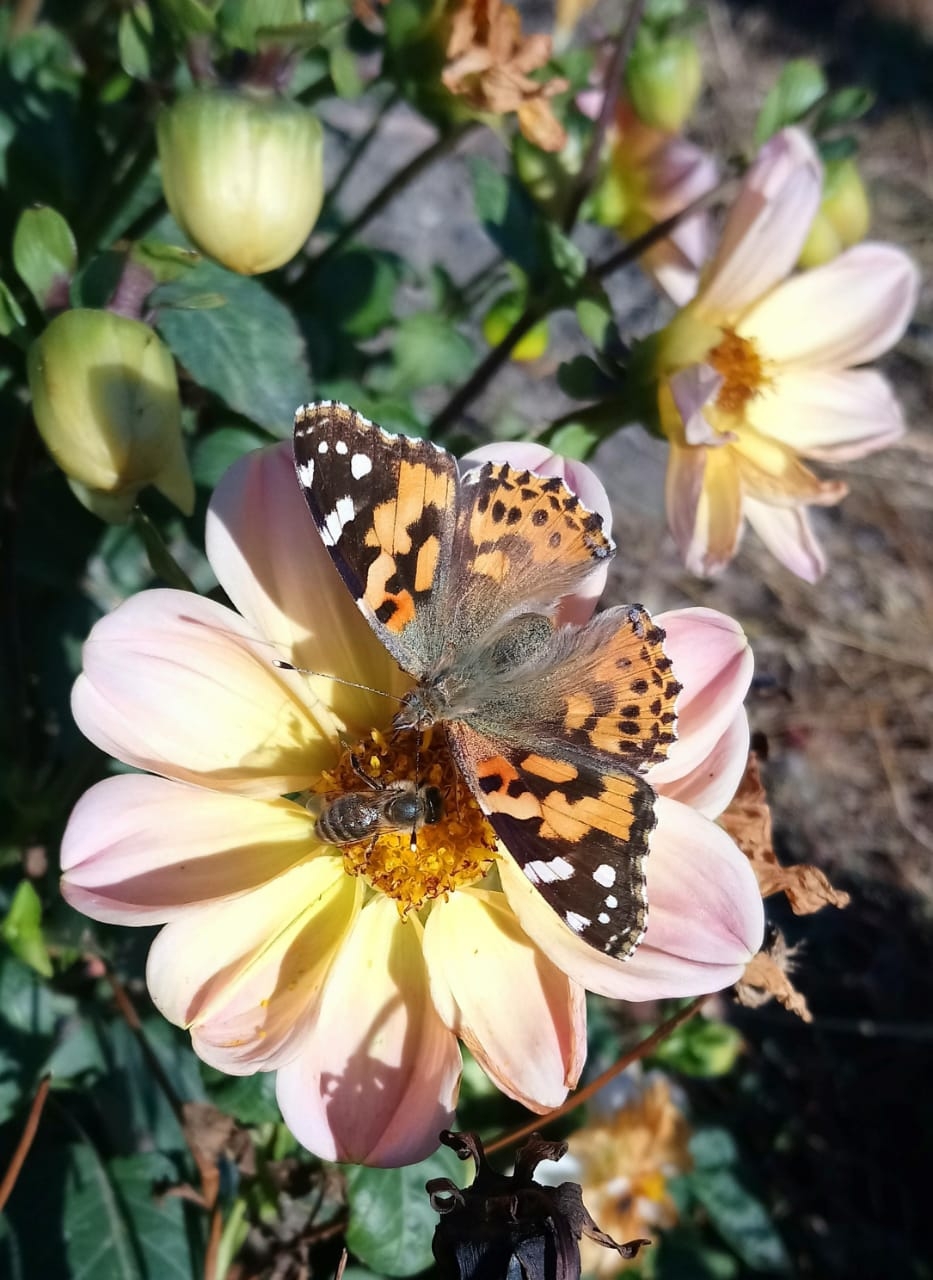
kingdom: Animalia
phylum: Arthropoda
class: Insecta
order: Lepidoptera
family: Nymphalidae
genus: Vanessa
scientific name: Vanessa cardui
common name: Painted lady
